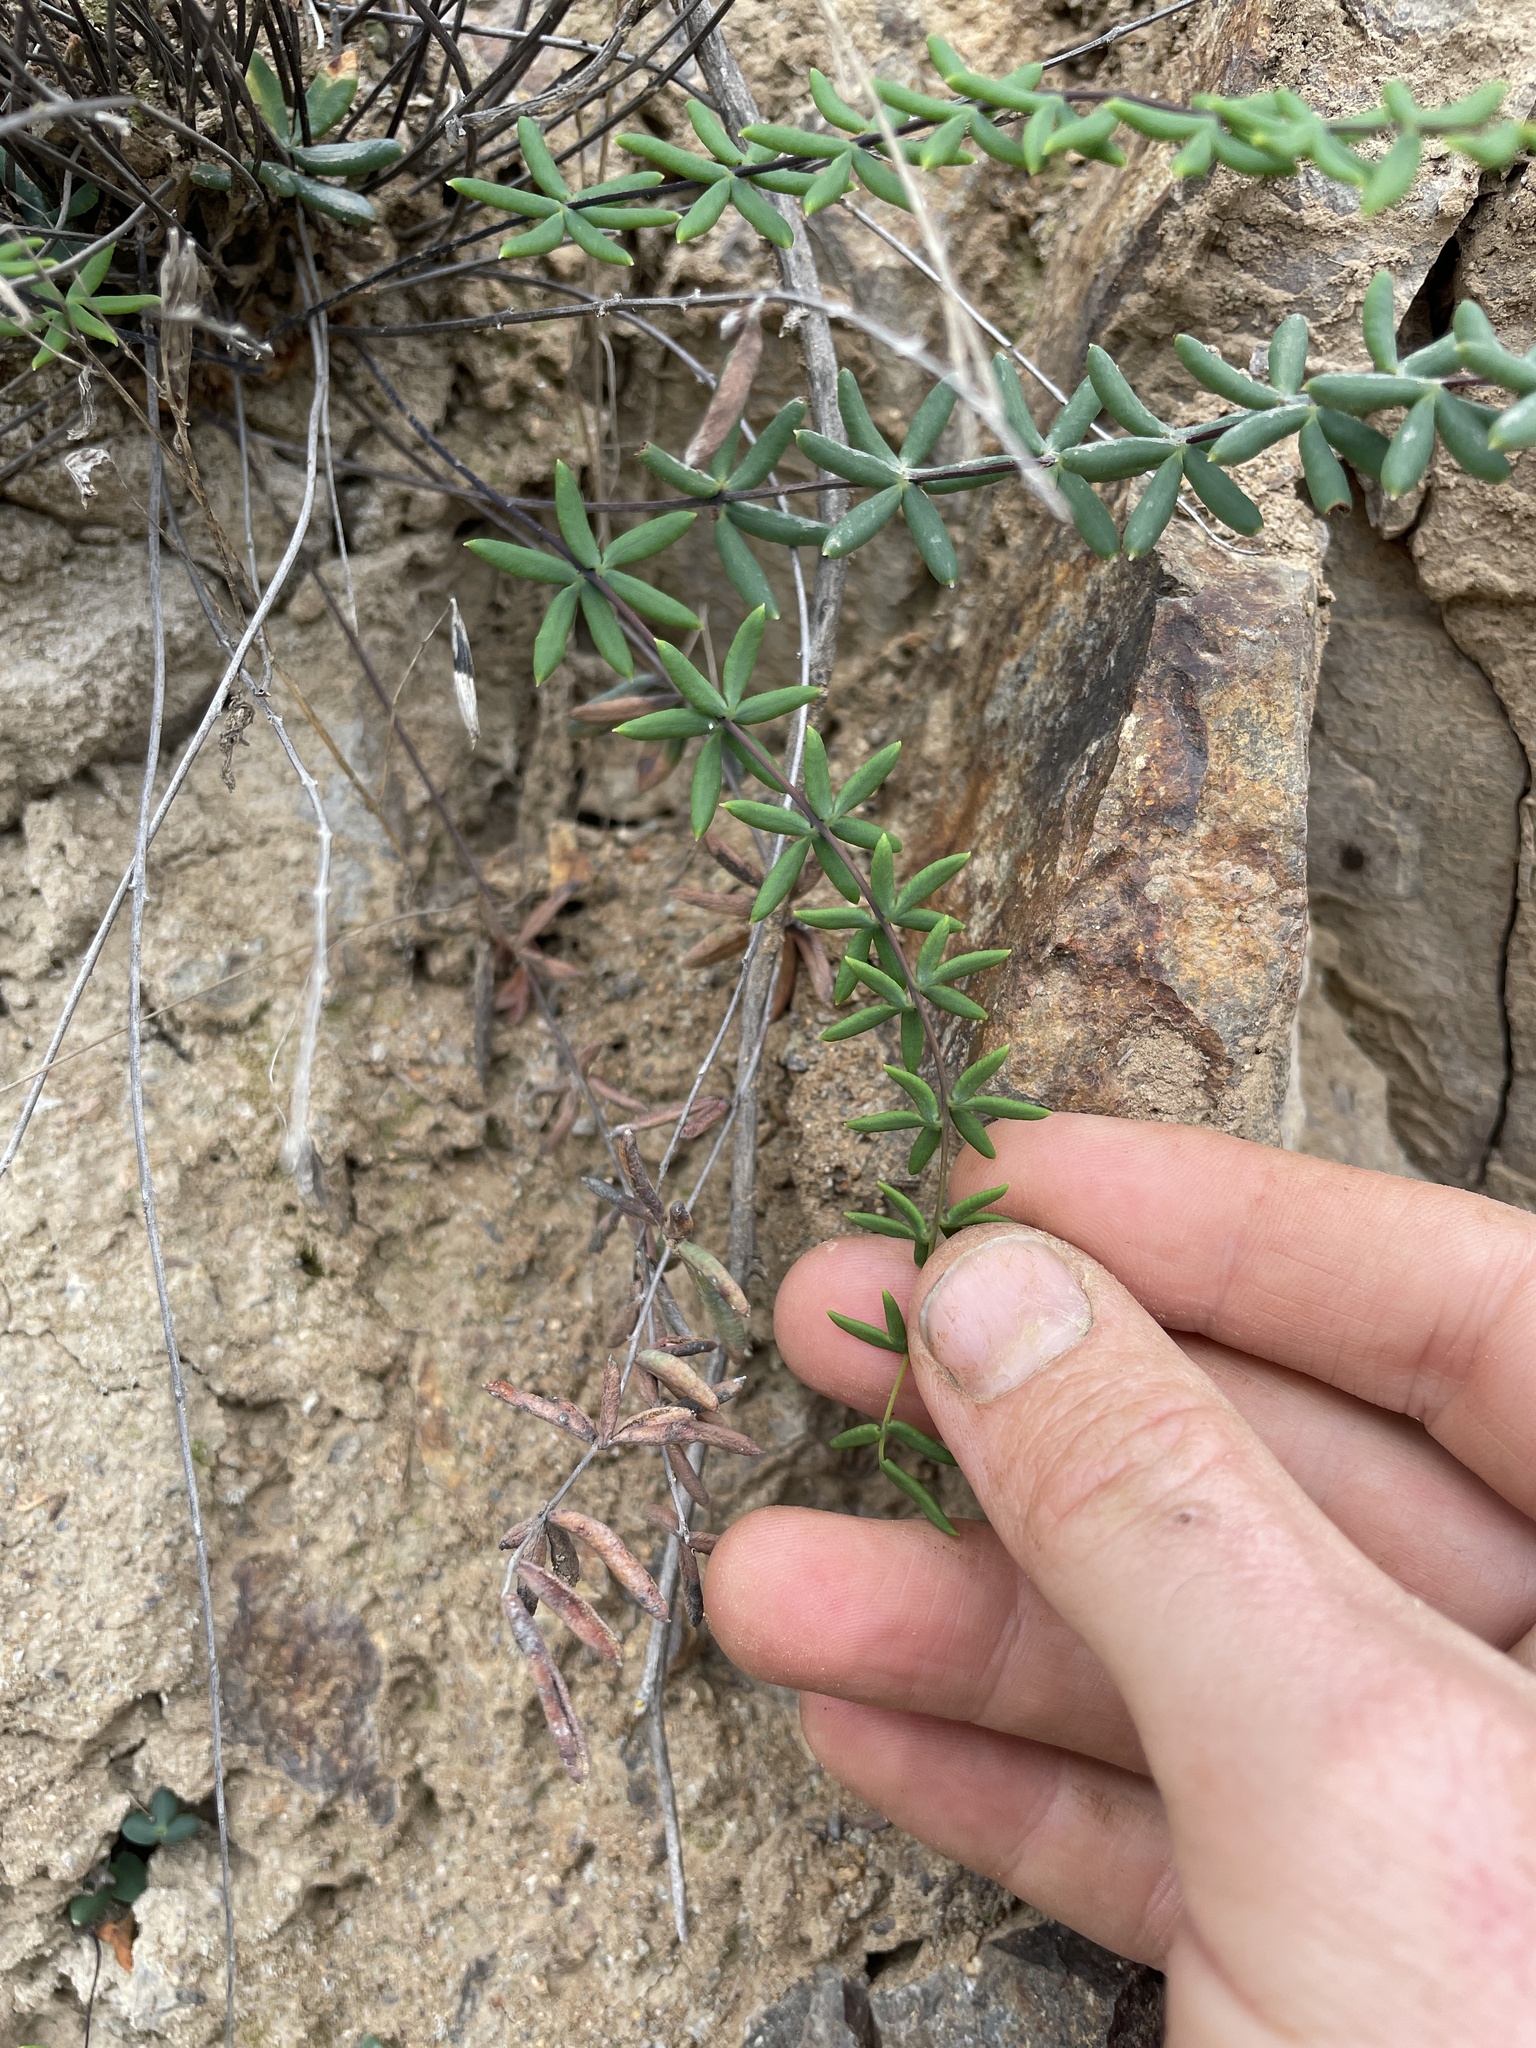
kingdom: Plantae
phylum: Tracheophyta
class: Polypodiopsida
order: Polypodiales
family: Pteridaceae
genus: Pellaea
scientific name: Pellaea ternifolia
